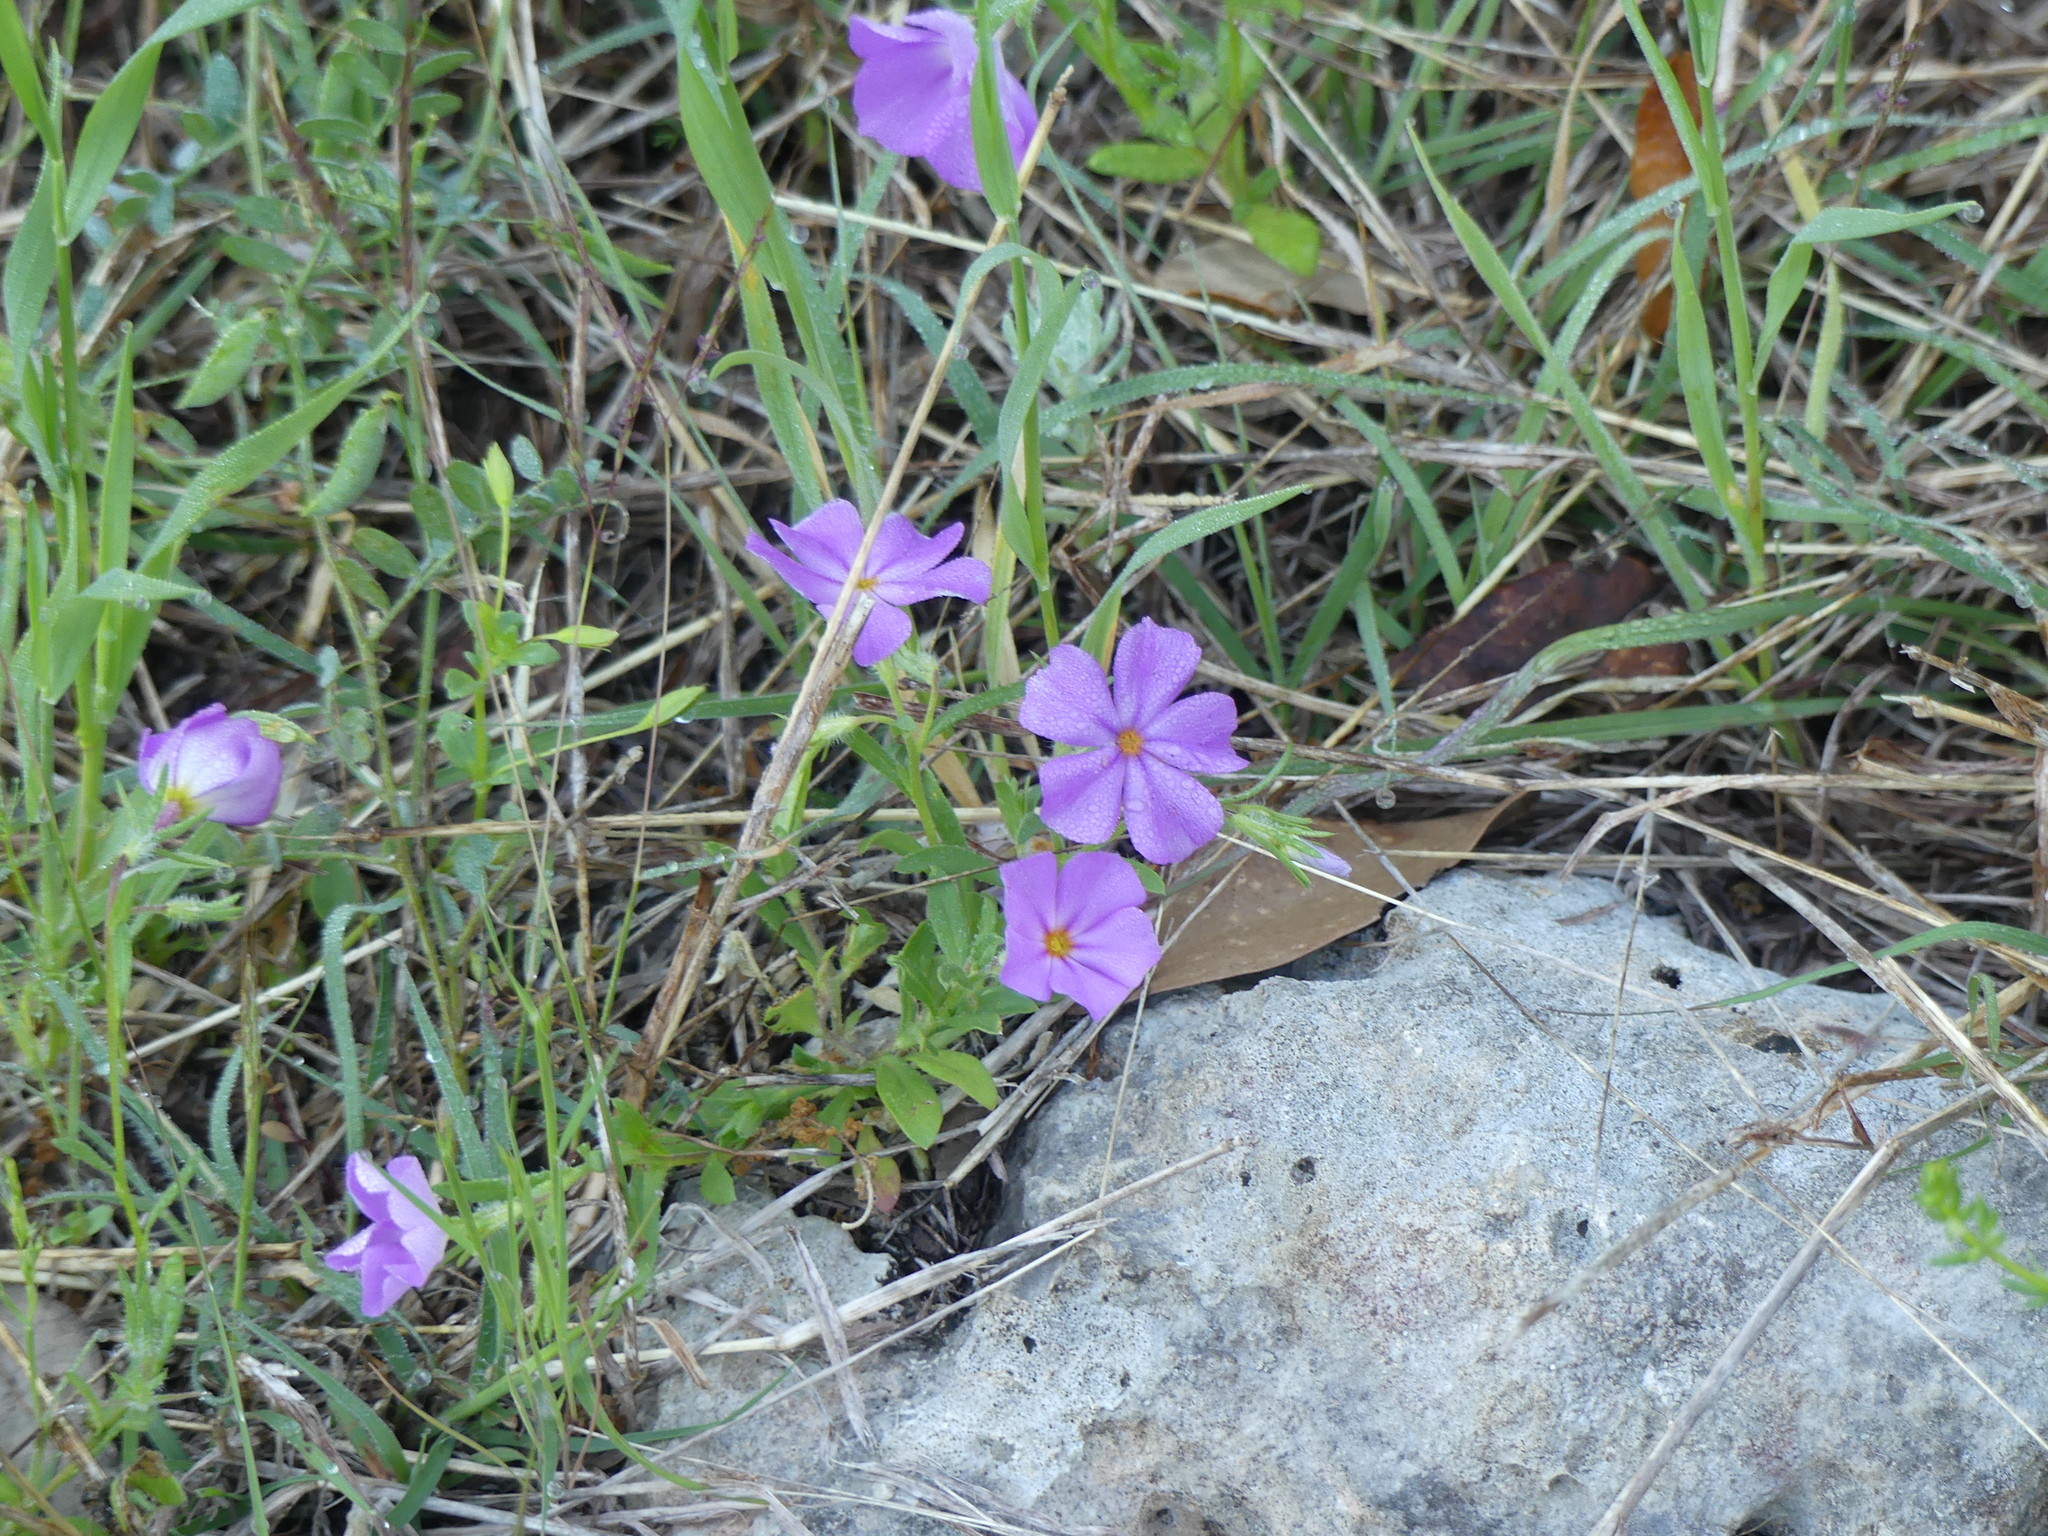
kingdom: Plantae
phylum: Tracheophyta
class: Magnoliopsida
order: Ericales
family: Polemoniaceae
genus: Phlox
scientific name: Phlox roemeriana
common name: Roemer's phlox
